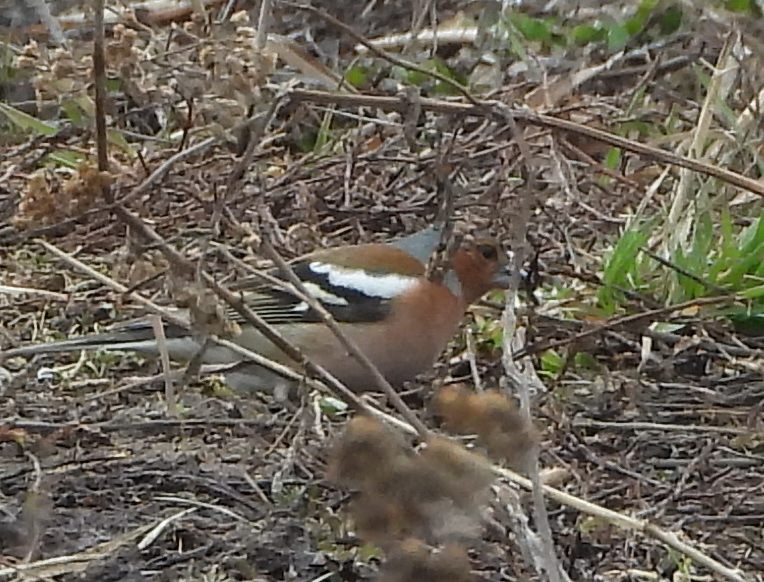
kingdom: Animalia
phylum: Chordata
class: Aves
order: Passeriformes
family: Fringillidae
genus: Fringilla
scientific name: Fringilla coelebs
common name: Common chaffinch
